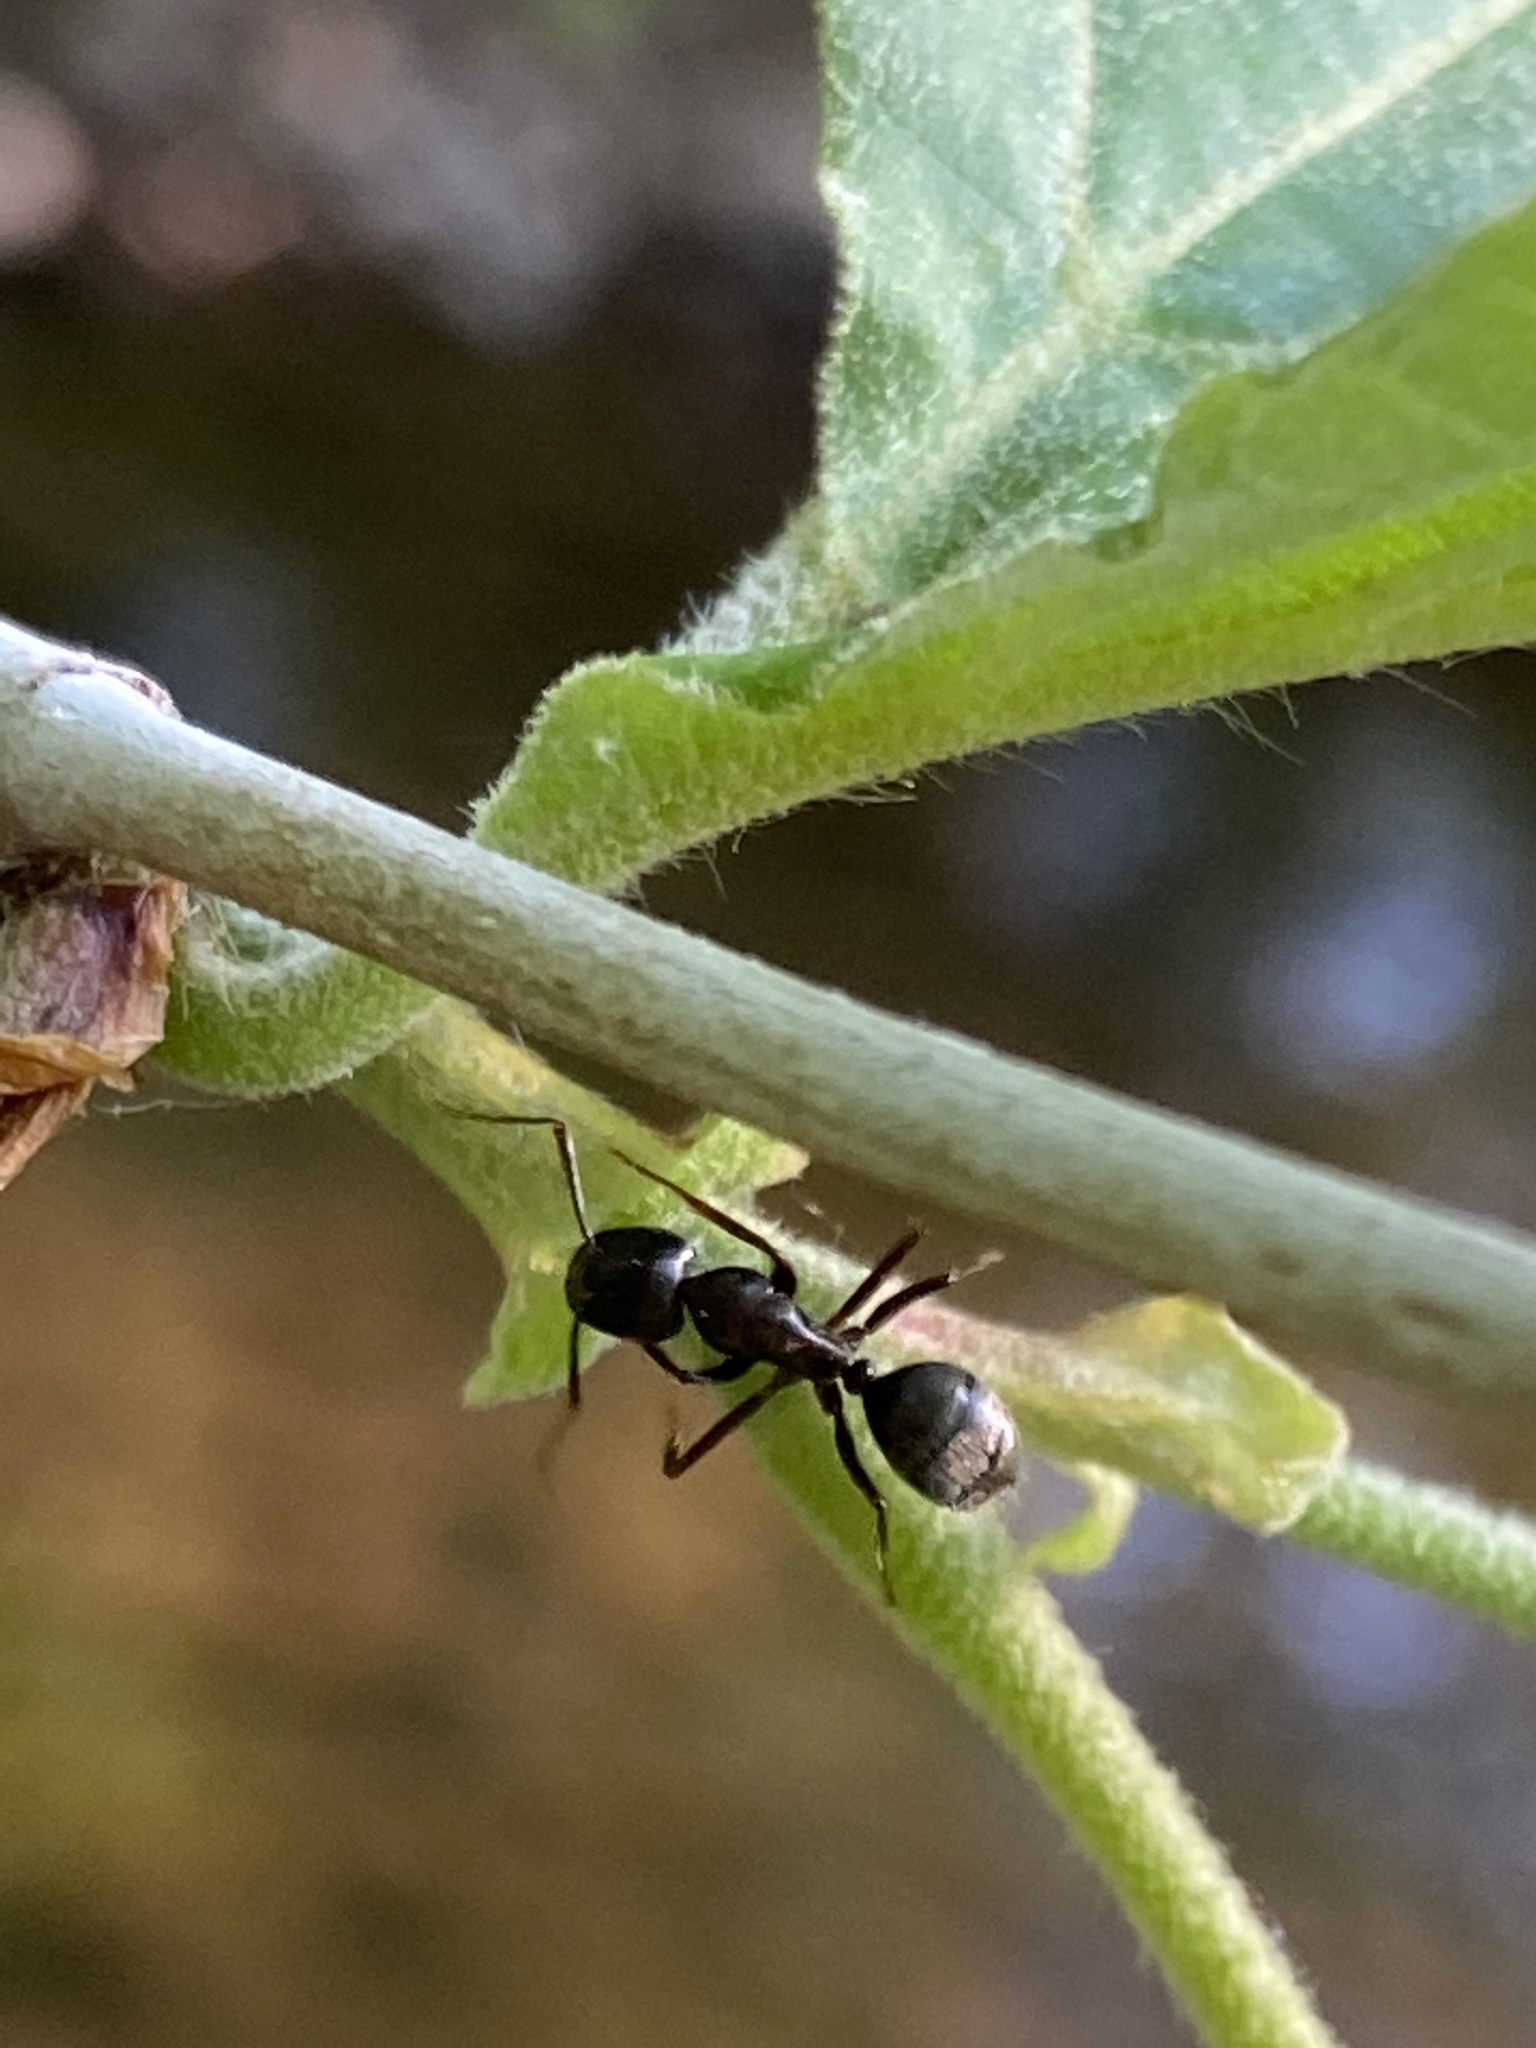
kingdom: Animalia
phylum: Arthropoda
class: Insecta
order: Hymenoptera
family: Formicidae
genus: Camponotus
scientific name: Camponotus pennsylvanicus
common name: Black carpenter ant
